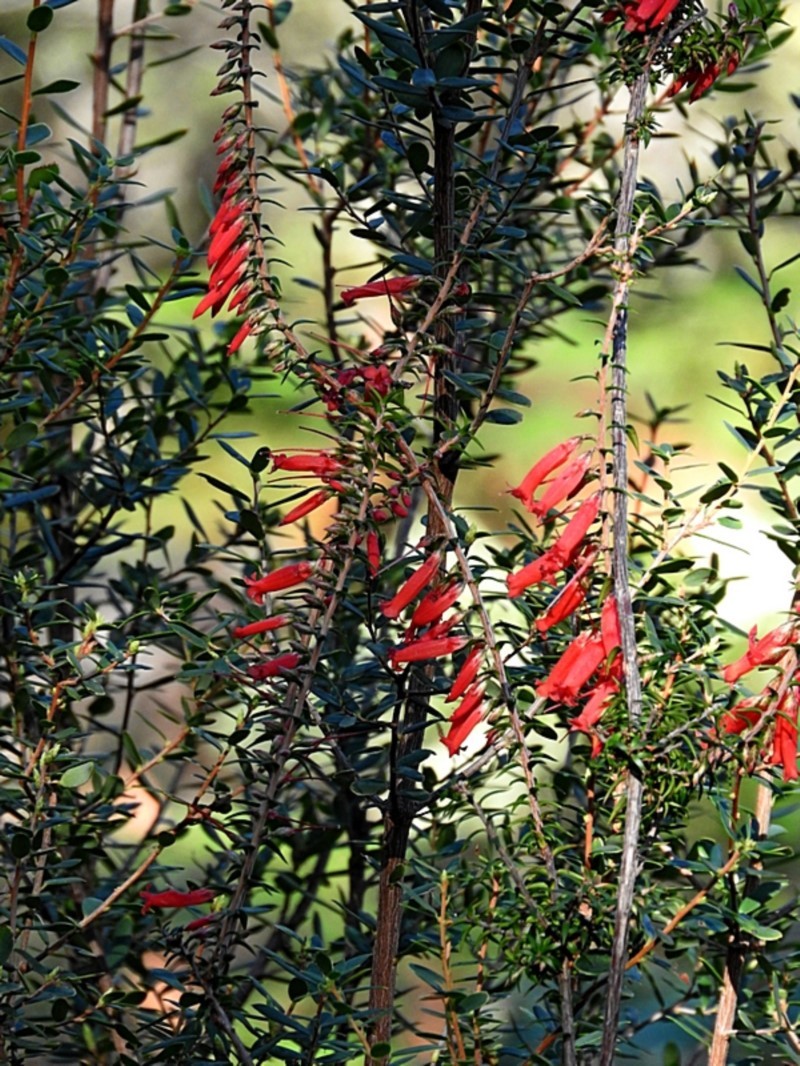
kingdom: Plantae
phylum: Tracheophyta
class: Magnoliopsida
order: Ericales
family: Ericaceae
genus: Epacris
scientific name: Epacris impressa
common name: Common-heath
